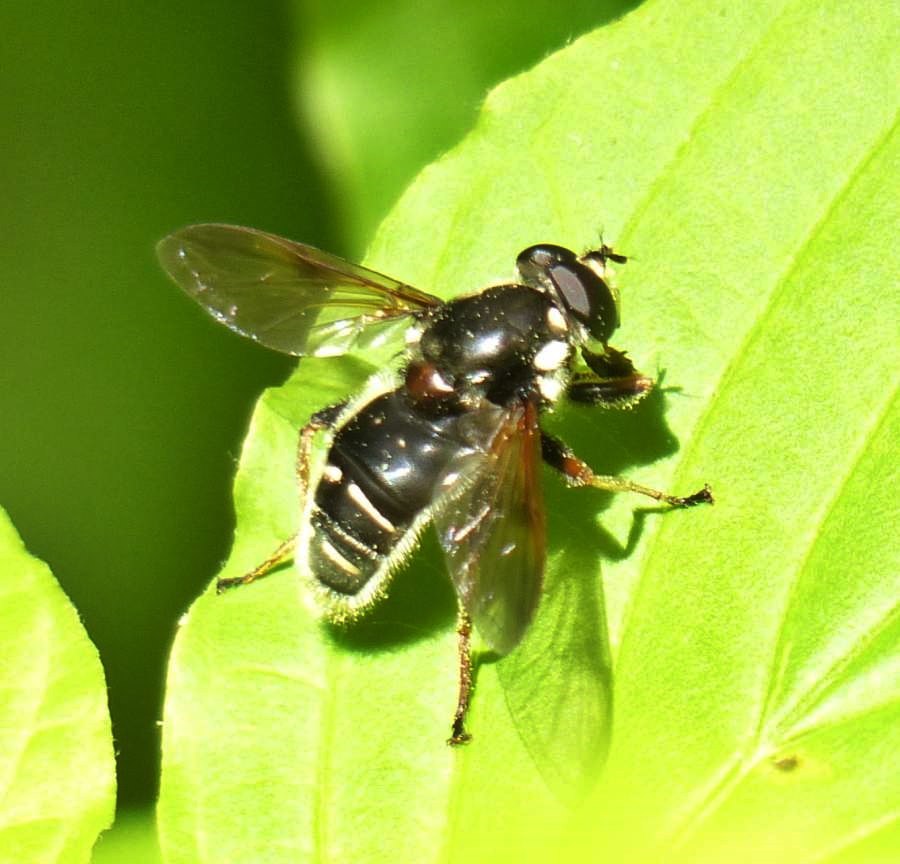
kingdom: Animalia
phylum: Arthropoda
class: Insecta
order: Diptera
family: Syrphidae
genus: Sericomyia
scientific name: Sericomyia militaris
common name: Narrow-banded pond fly
